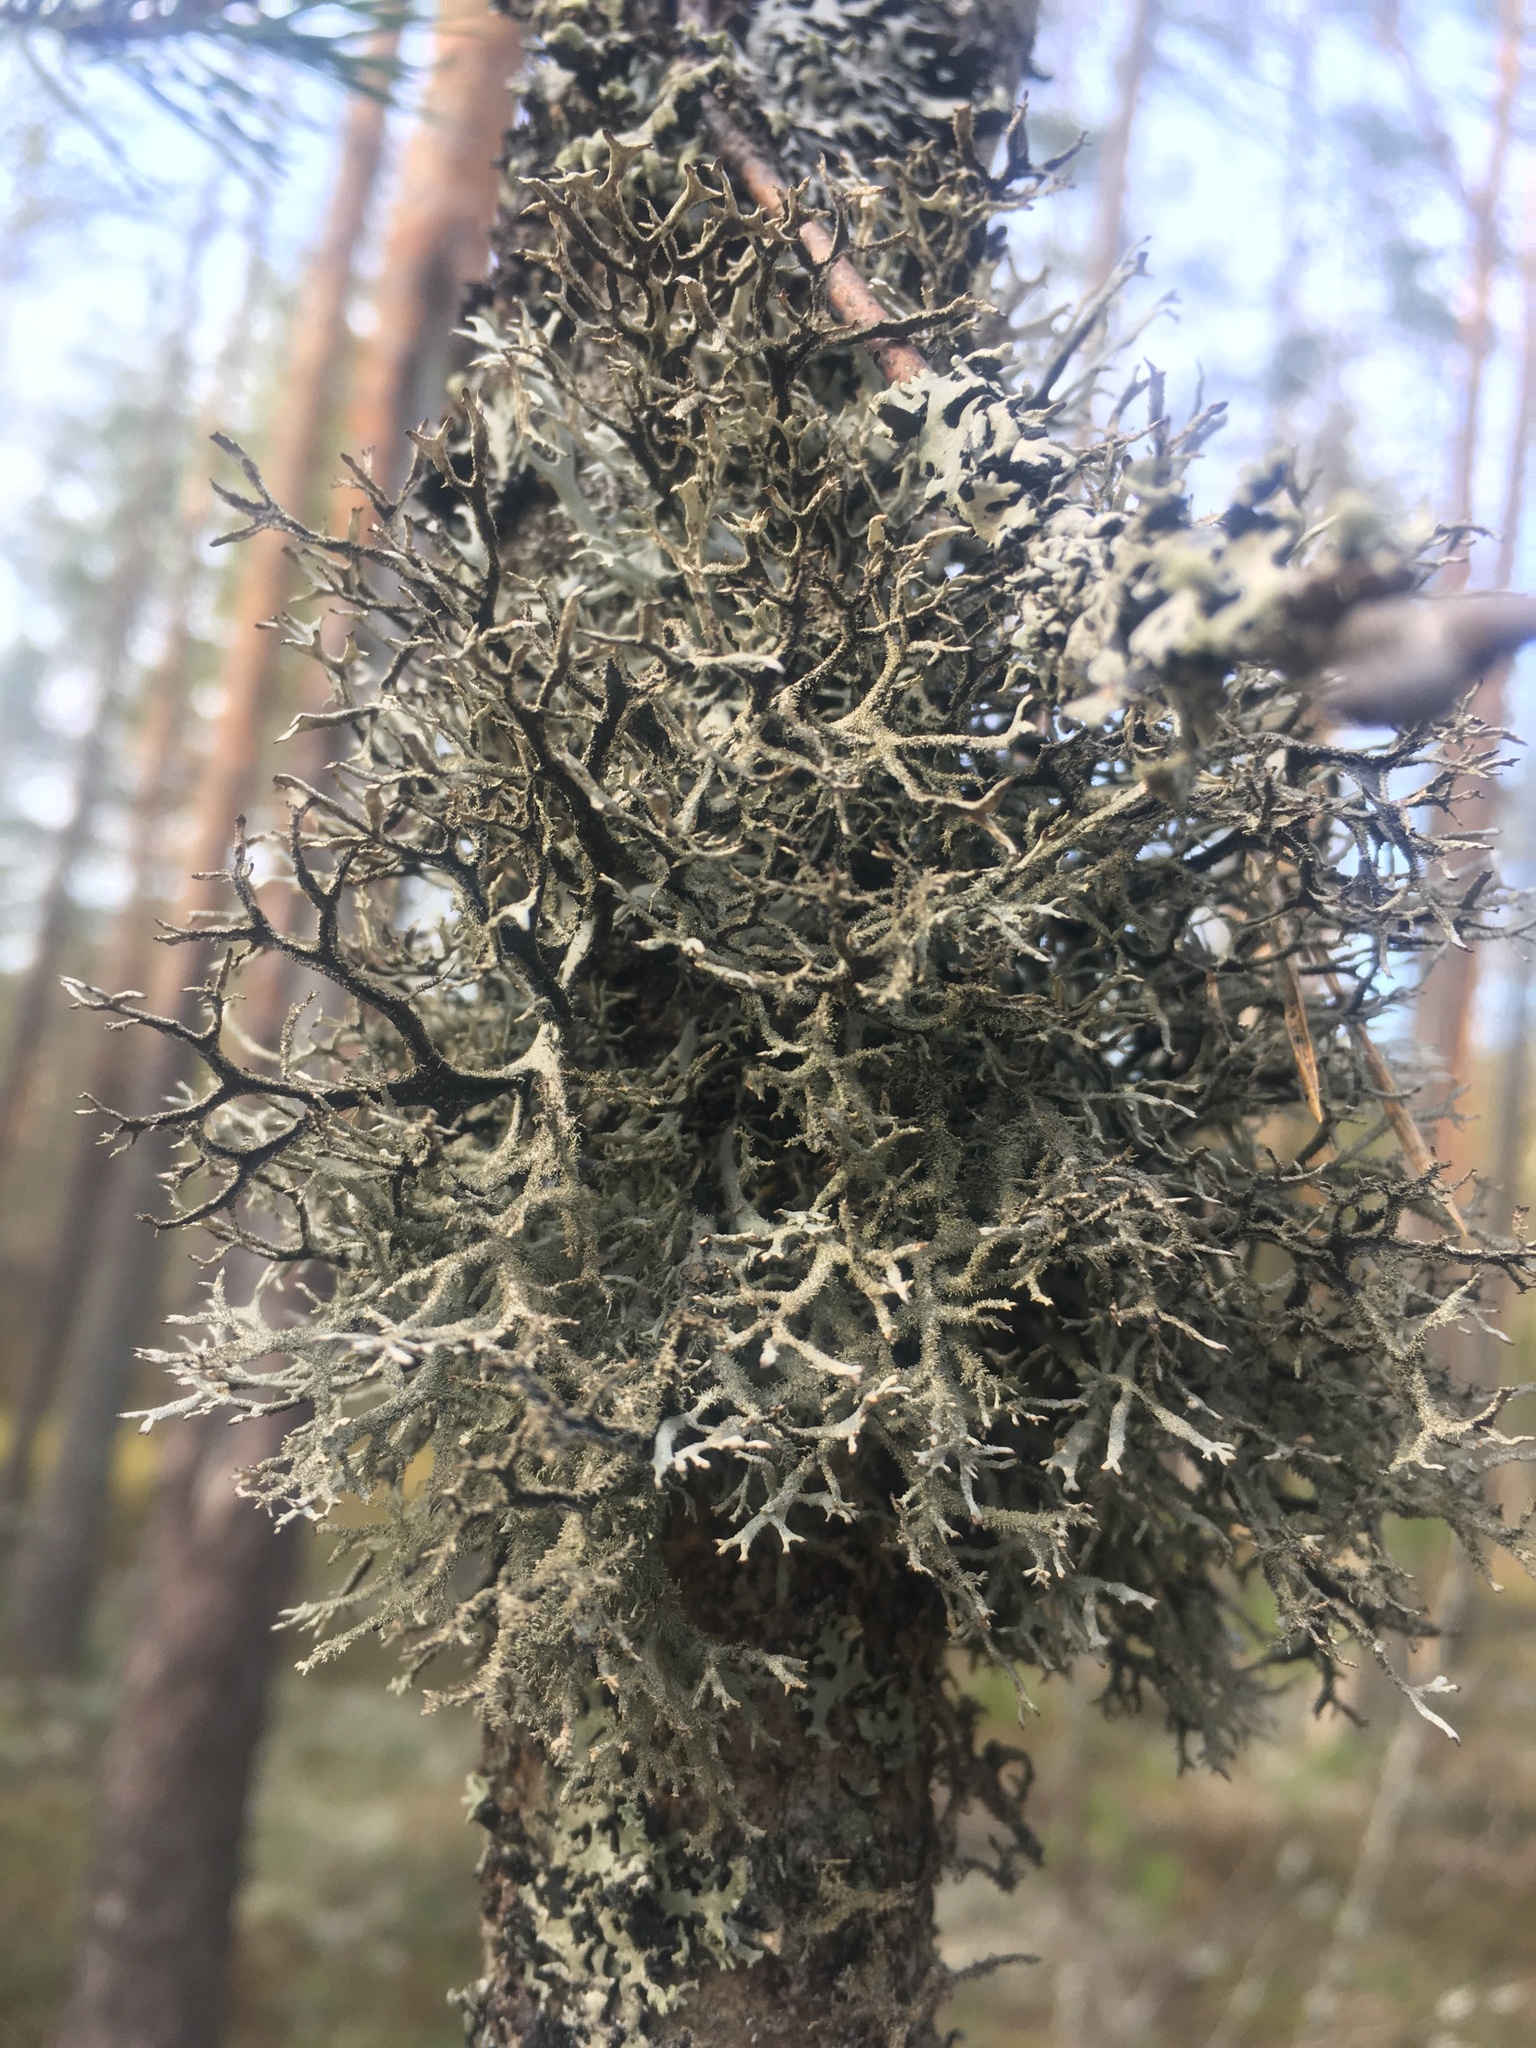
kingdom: Fungi
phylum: Ascomycota
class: Lecanoromycetes
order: Lecanorales
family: Parmeliaceae
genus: Pseudevernia
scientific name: Pseudevernia furfuracea
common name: Tree moss
